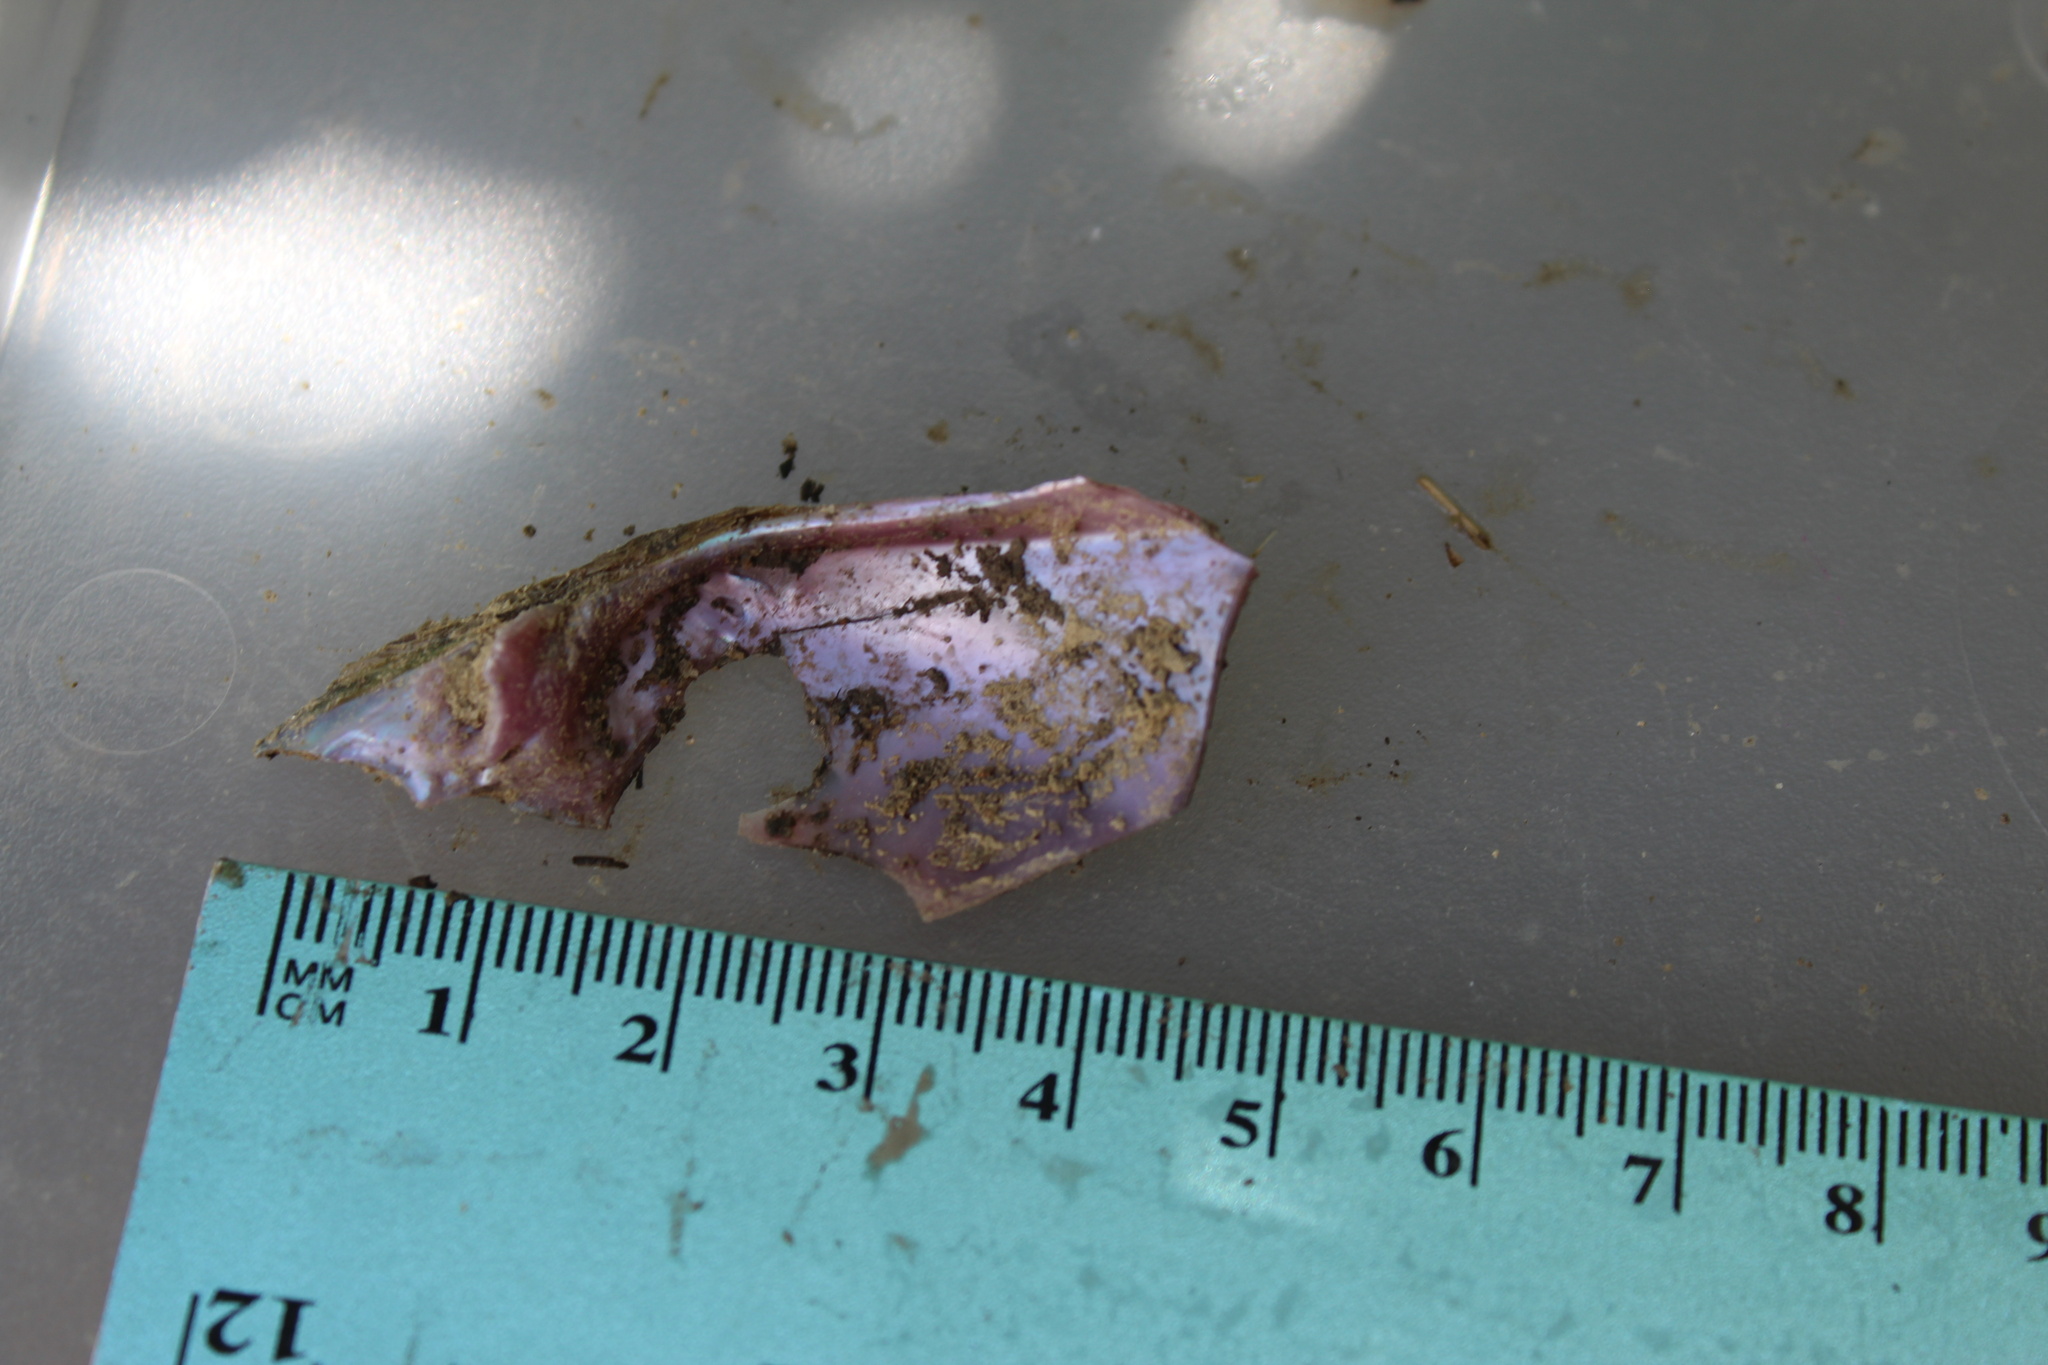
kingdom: Animalia
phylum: Mollusca
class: Bivalvia
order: Unionida
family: Unionidae
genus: Potamilus
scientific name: Potamilus alatus
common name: Pink heelsplitter
